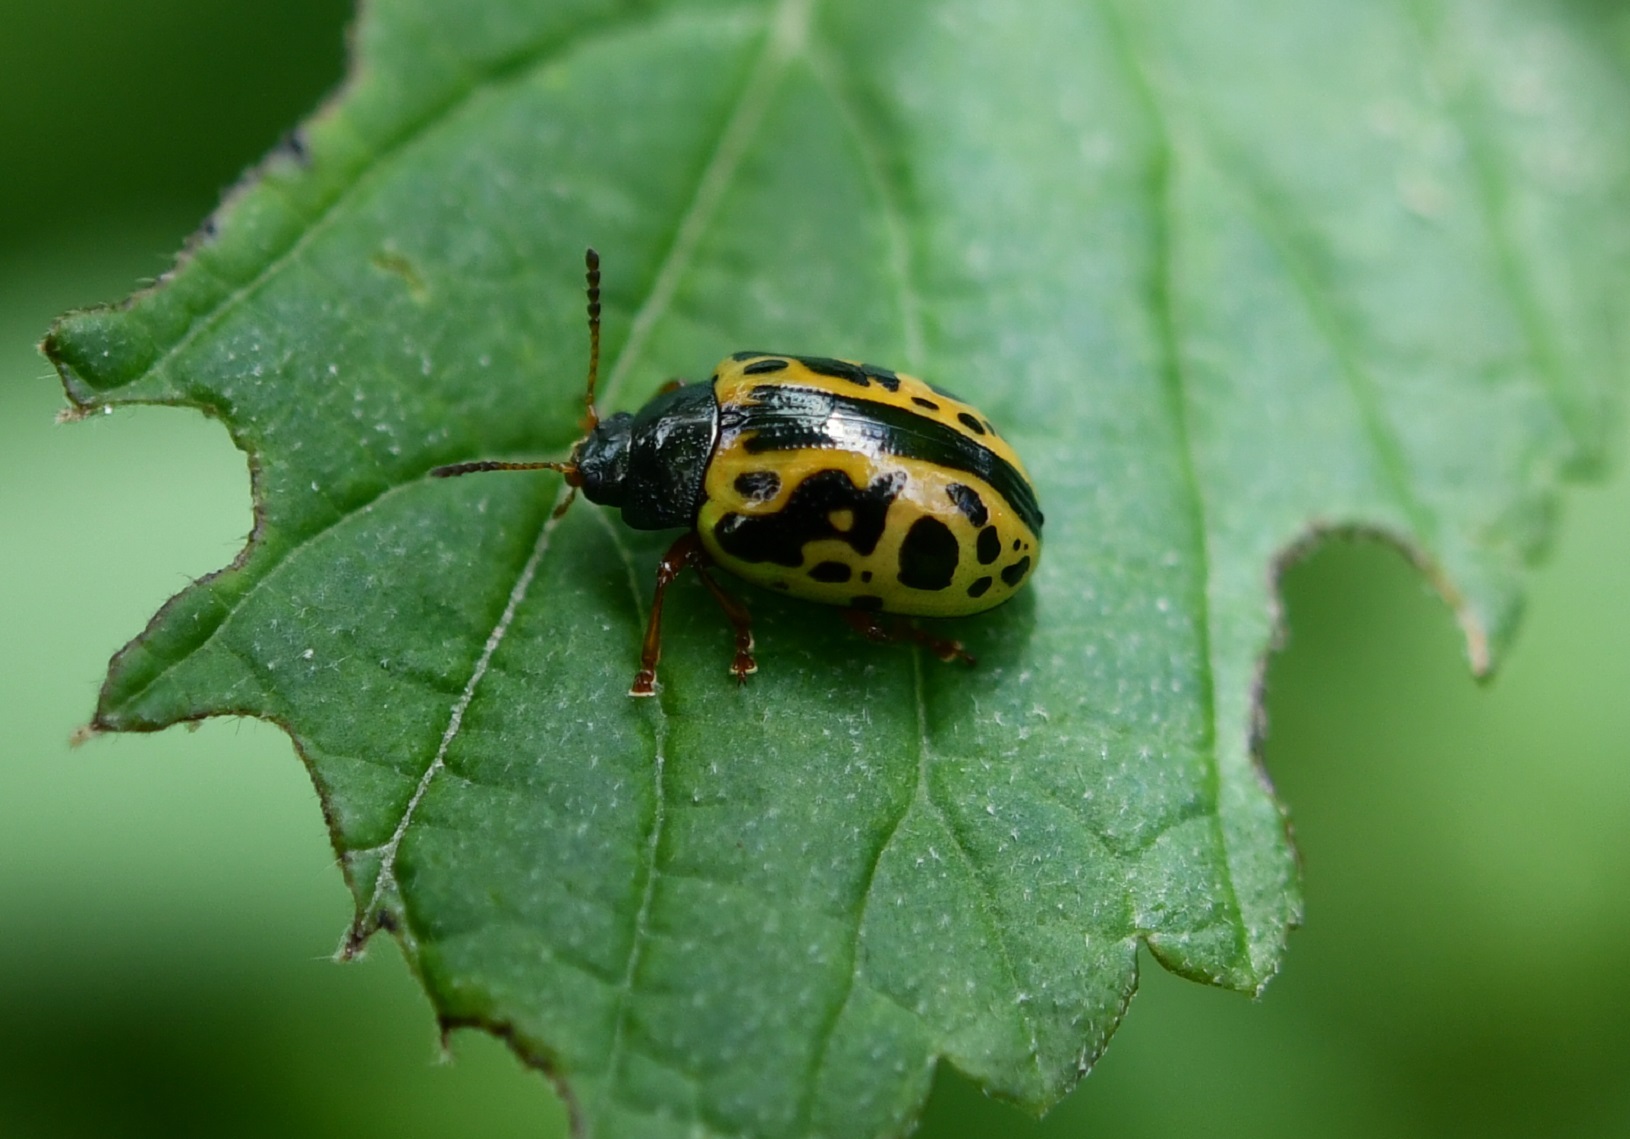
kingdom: Animalia
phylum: Arthropoda
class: Insecta
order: Coleoptera
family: Chrysomelidae
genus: Calligrapha
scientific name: Calligrapha fulvipes
